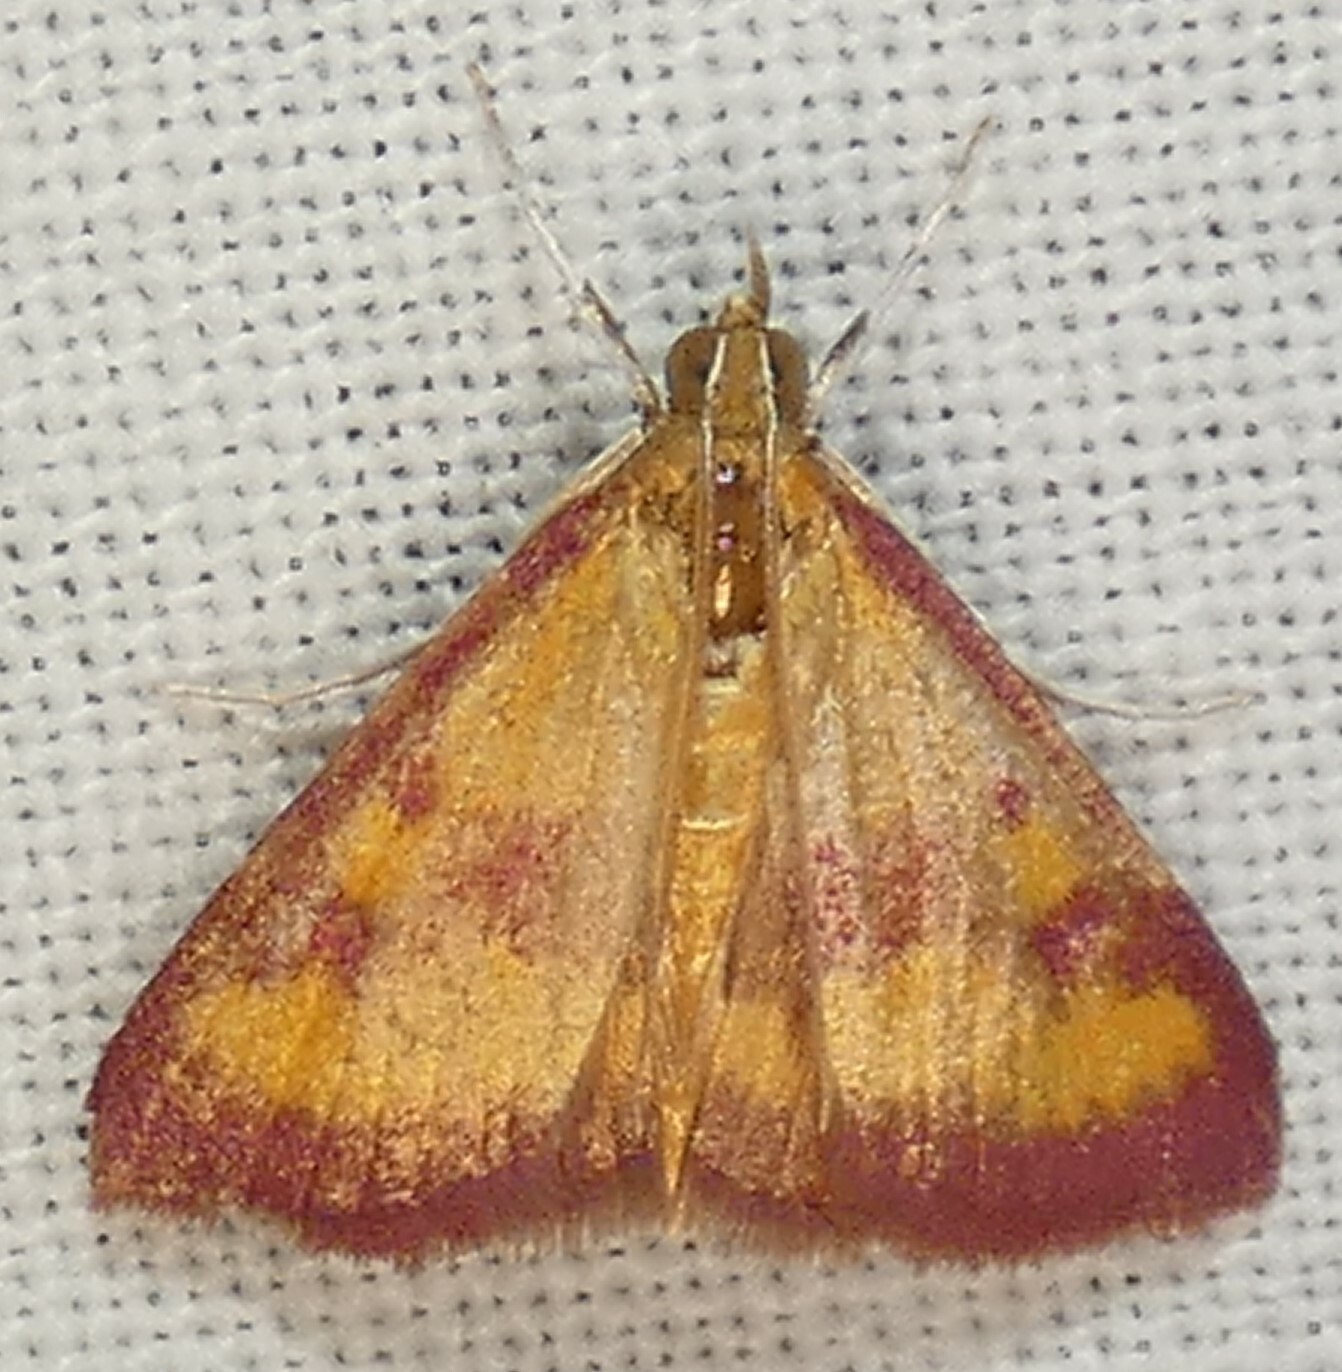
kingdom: Animalia
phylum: Arthropoda
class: Insecta
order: Lepidoptera
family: Crambidae
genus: Pyrausta
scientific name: Pyrausta laticlavia
